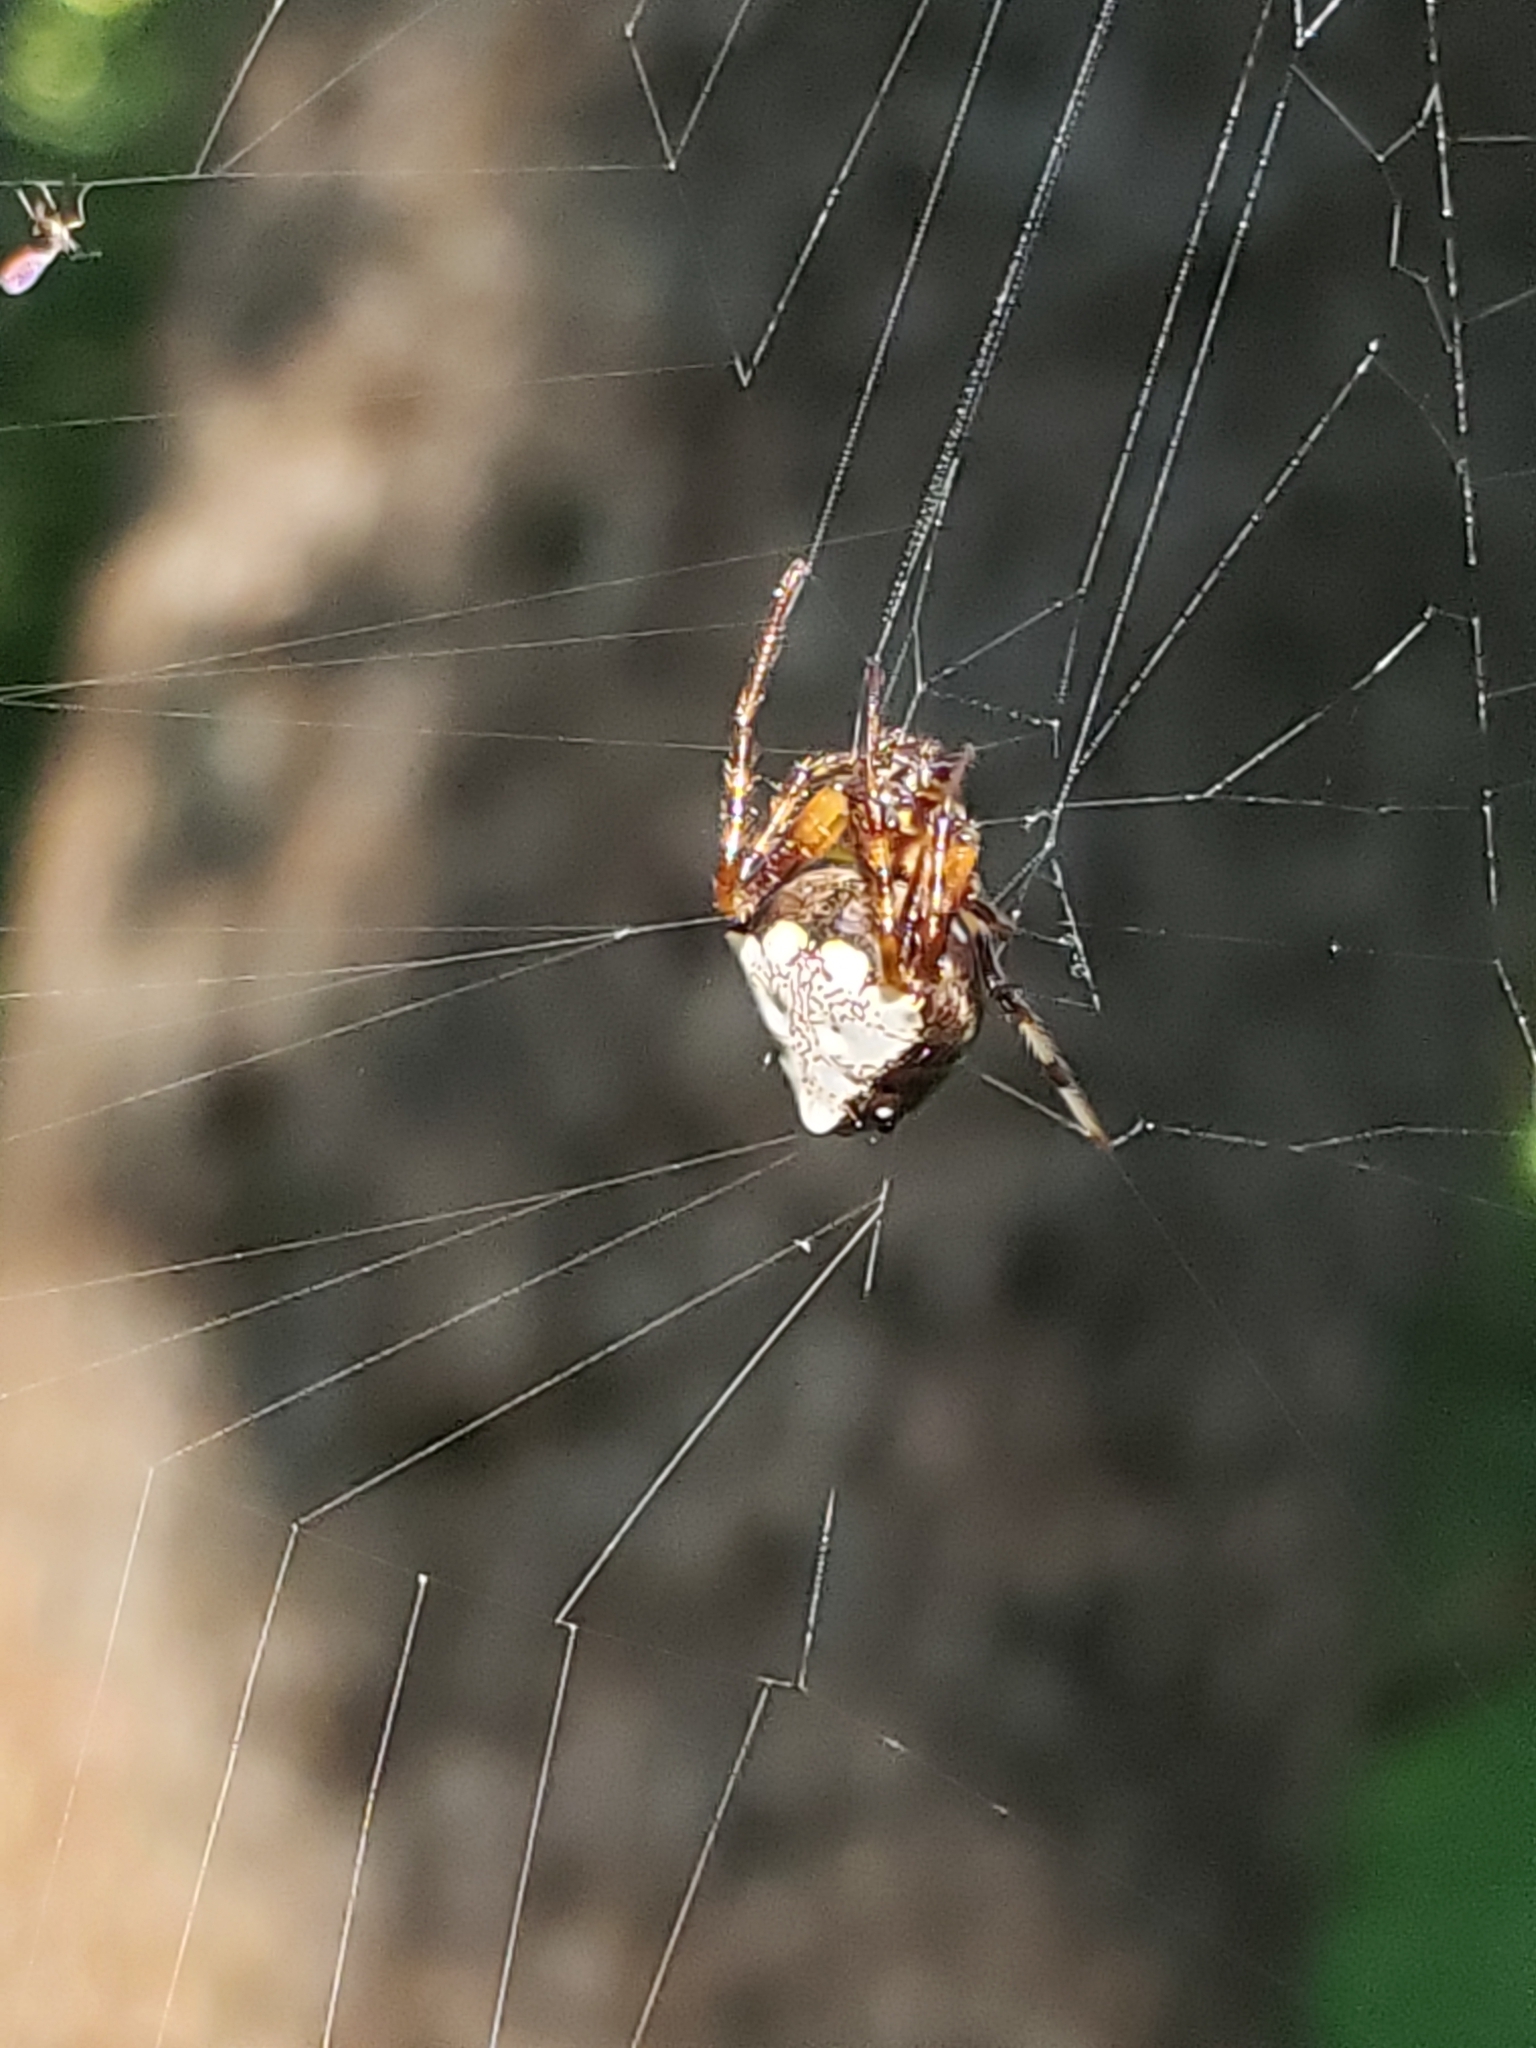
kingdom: Animalia
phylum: Arthropoda
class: Arachnida
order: Araneae
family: Araneidae
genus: Verrucosa
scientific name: Verrucosa arenata
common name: Orb weavers
